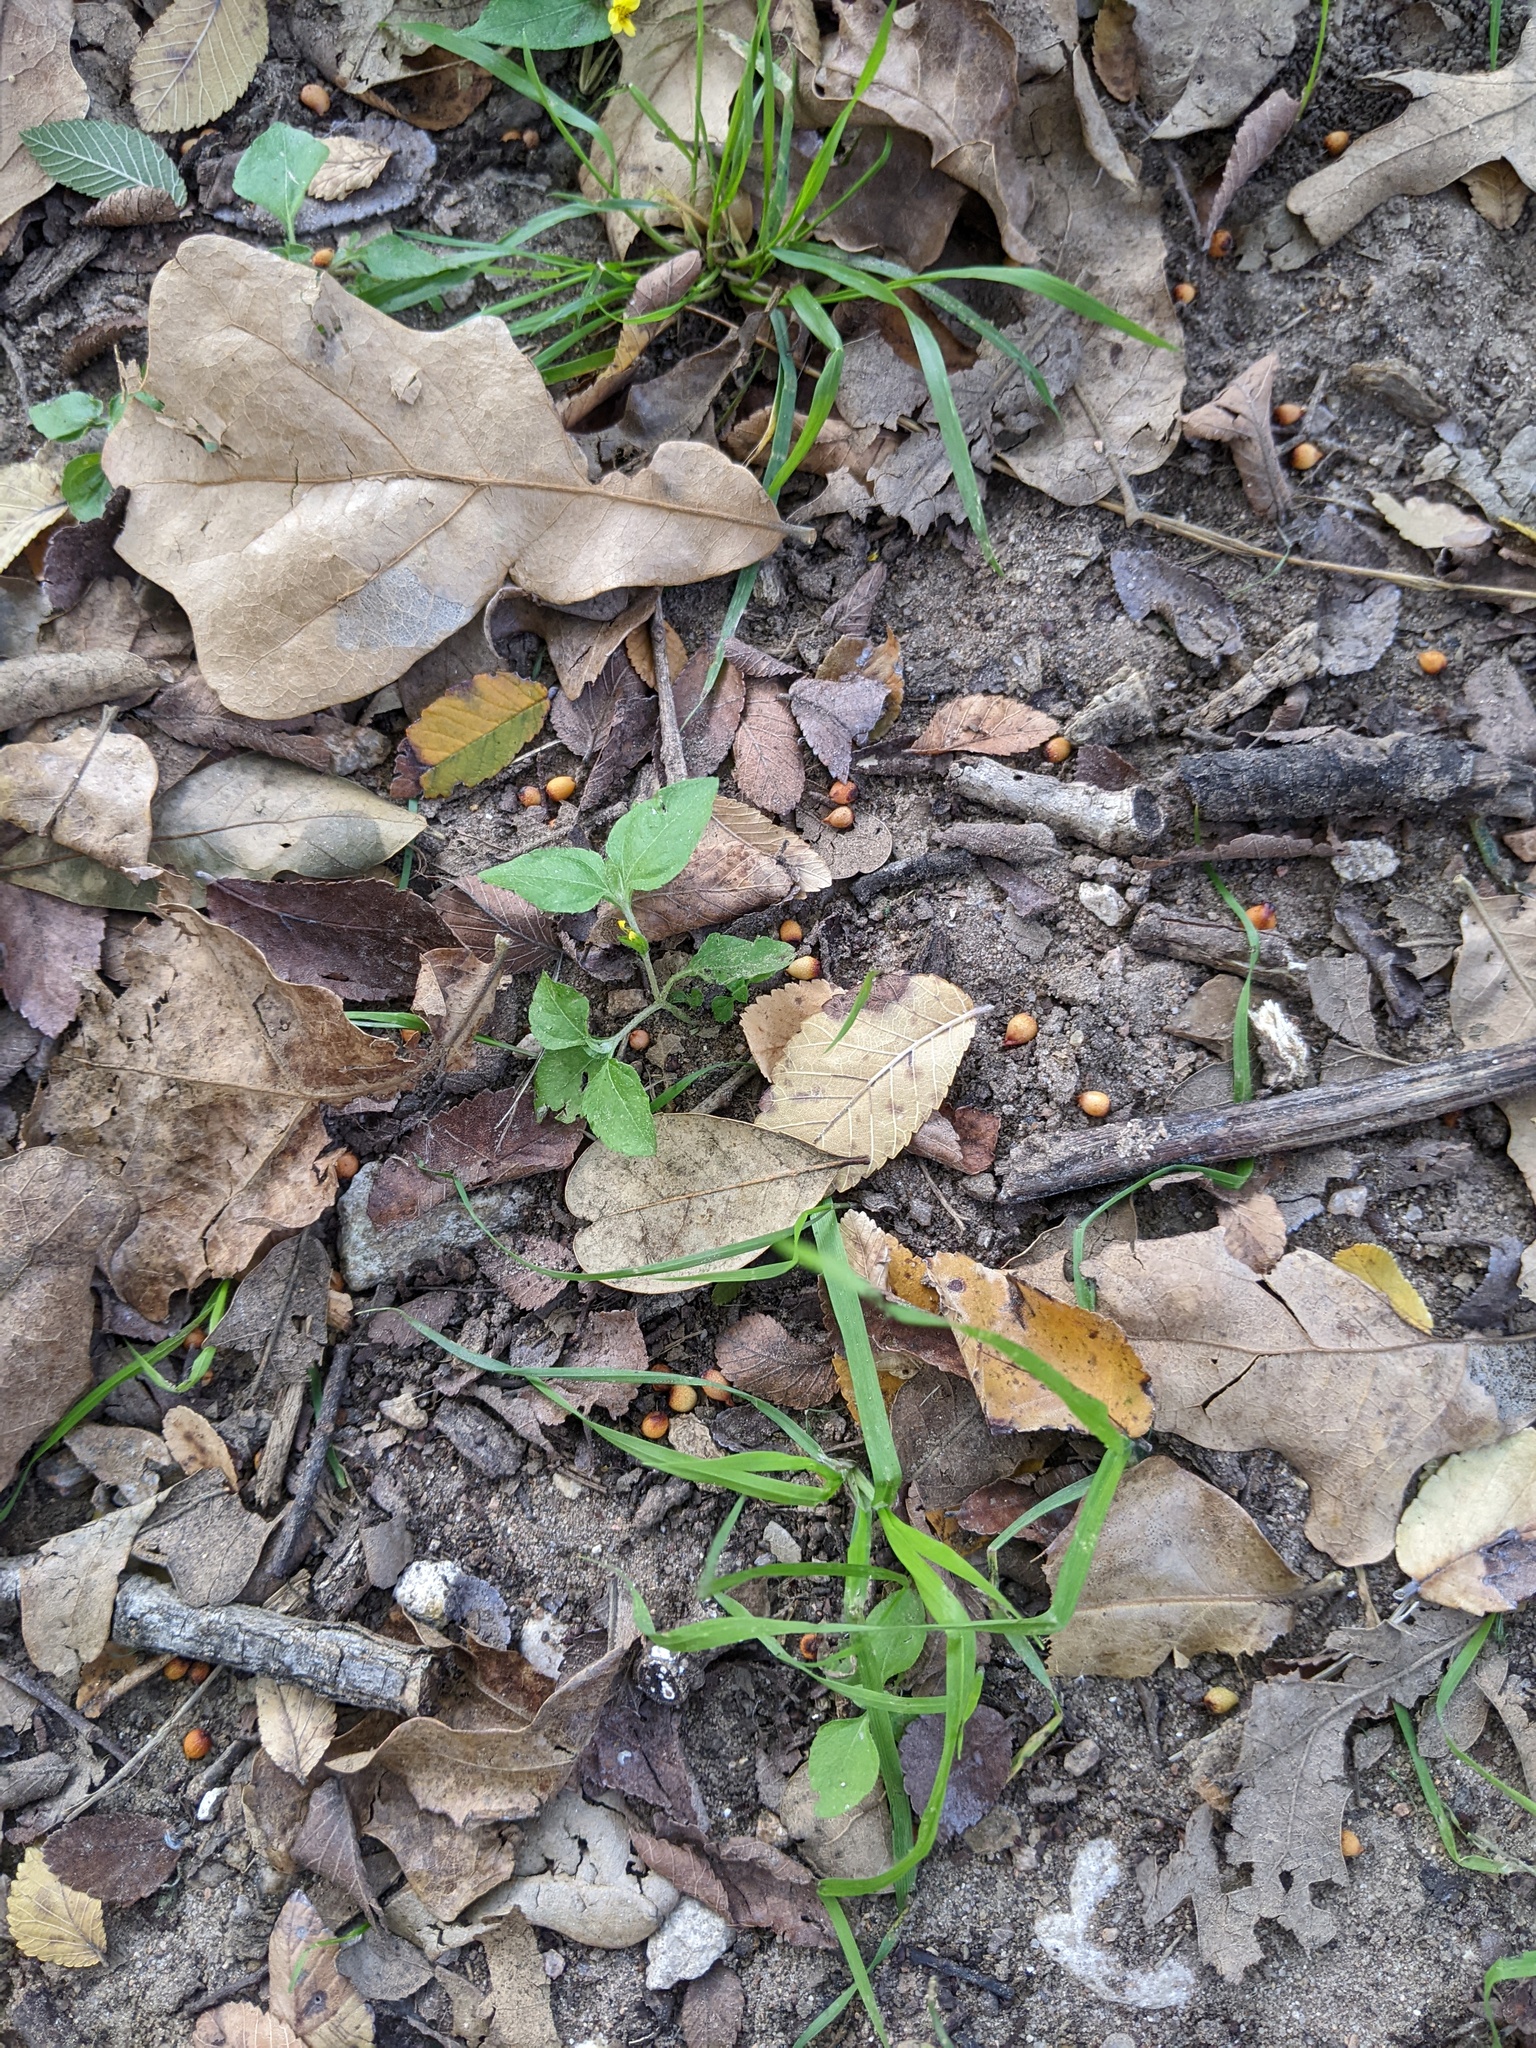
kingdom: Animalia
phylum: Arthropoda
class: Insecta
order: Hymenoptera
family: Cynipidae
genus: Andricus
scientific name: Andricus lustrans
